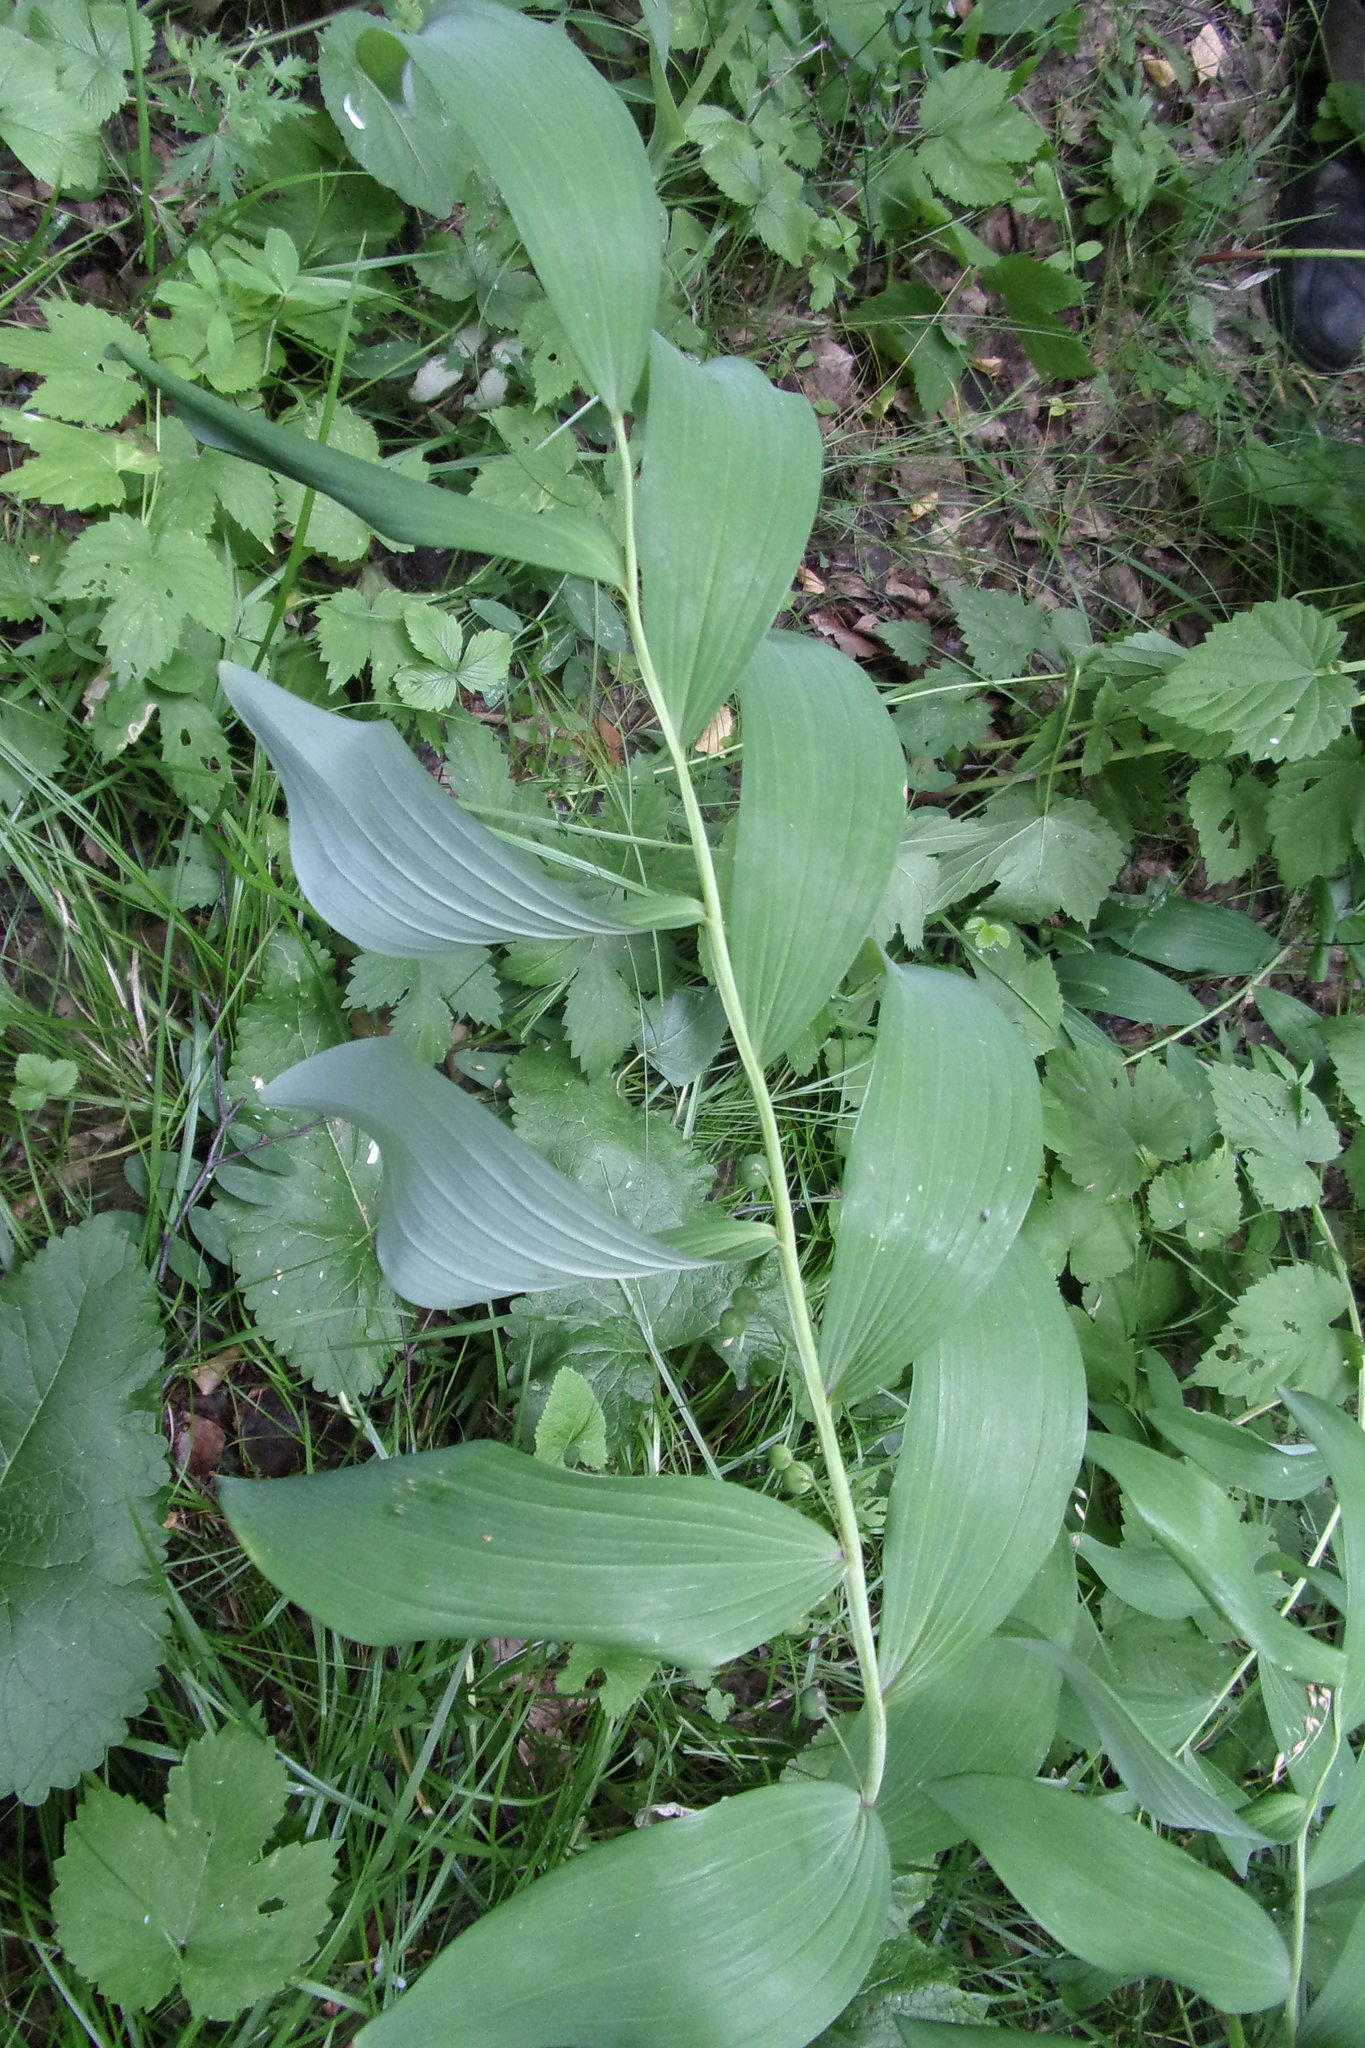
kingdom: Plantae
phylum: Tracheophyta
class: Liliopsida
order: Asparagales
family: Asparagaceae
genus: Polygonatum
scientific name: Polygonatum odoratum
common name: Angular solomon's-seal
